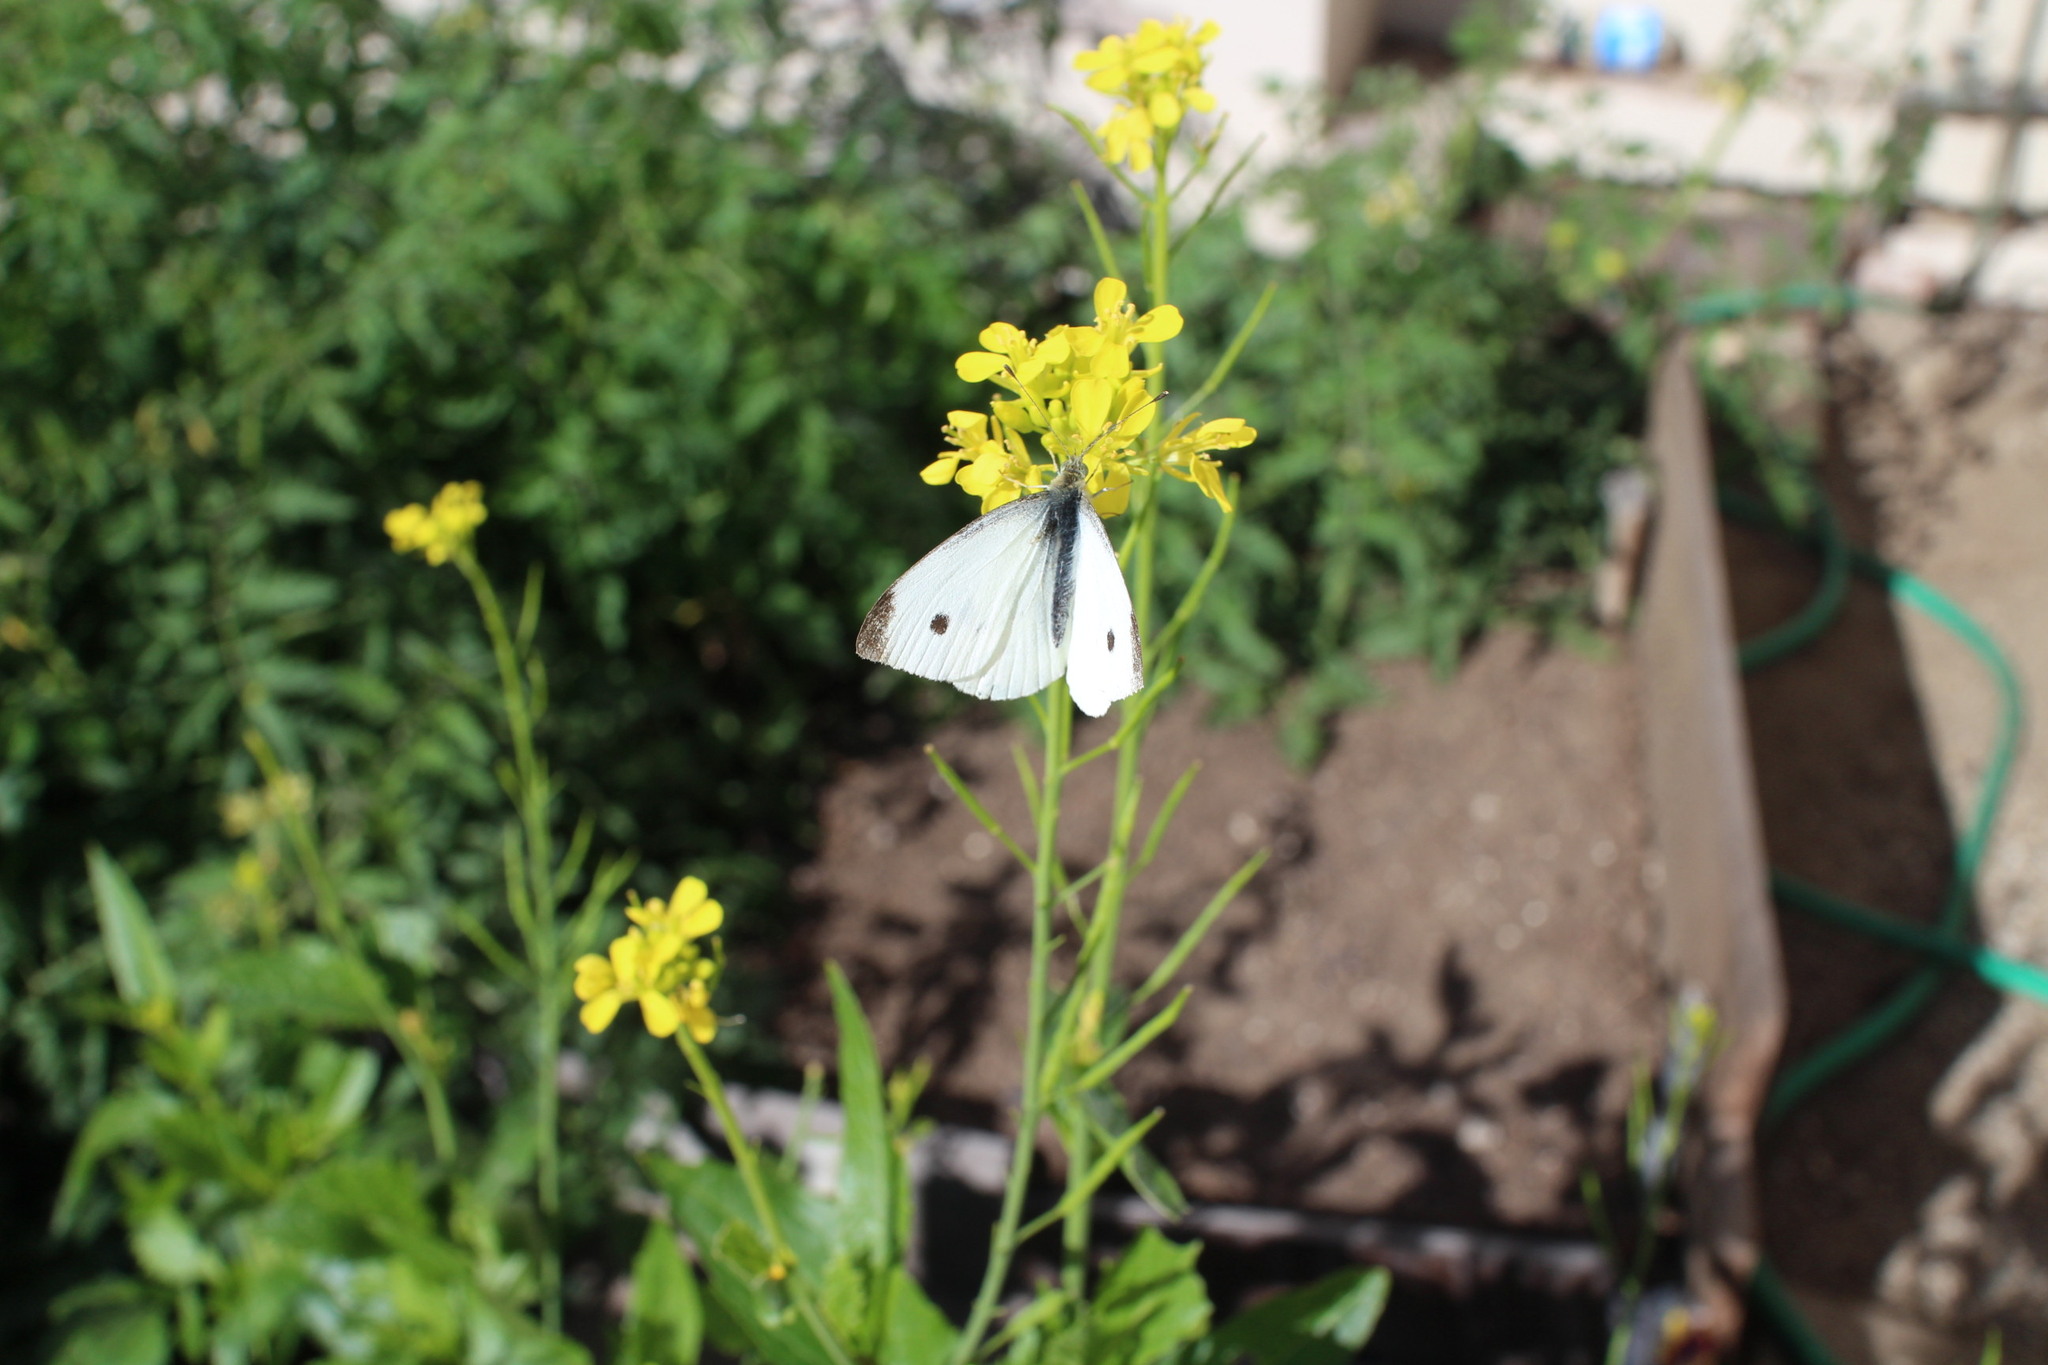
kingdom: Animalia
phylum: Arthropoda
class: Insecta
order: Lepidoptera
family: Pieridae
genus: Pieris
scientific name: Pieris rapae
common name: Small white
